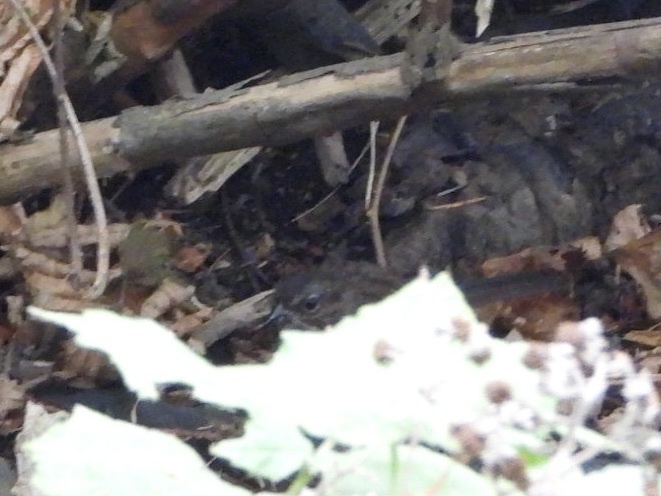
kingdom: Animalia
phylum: Chordata
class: Aves
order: Passeriformes
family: Passerellidae
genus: Melospiza
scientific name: Melospiza melodia
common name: Song sparrow
